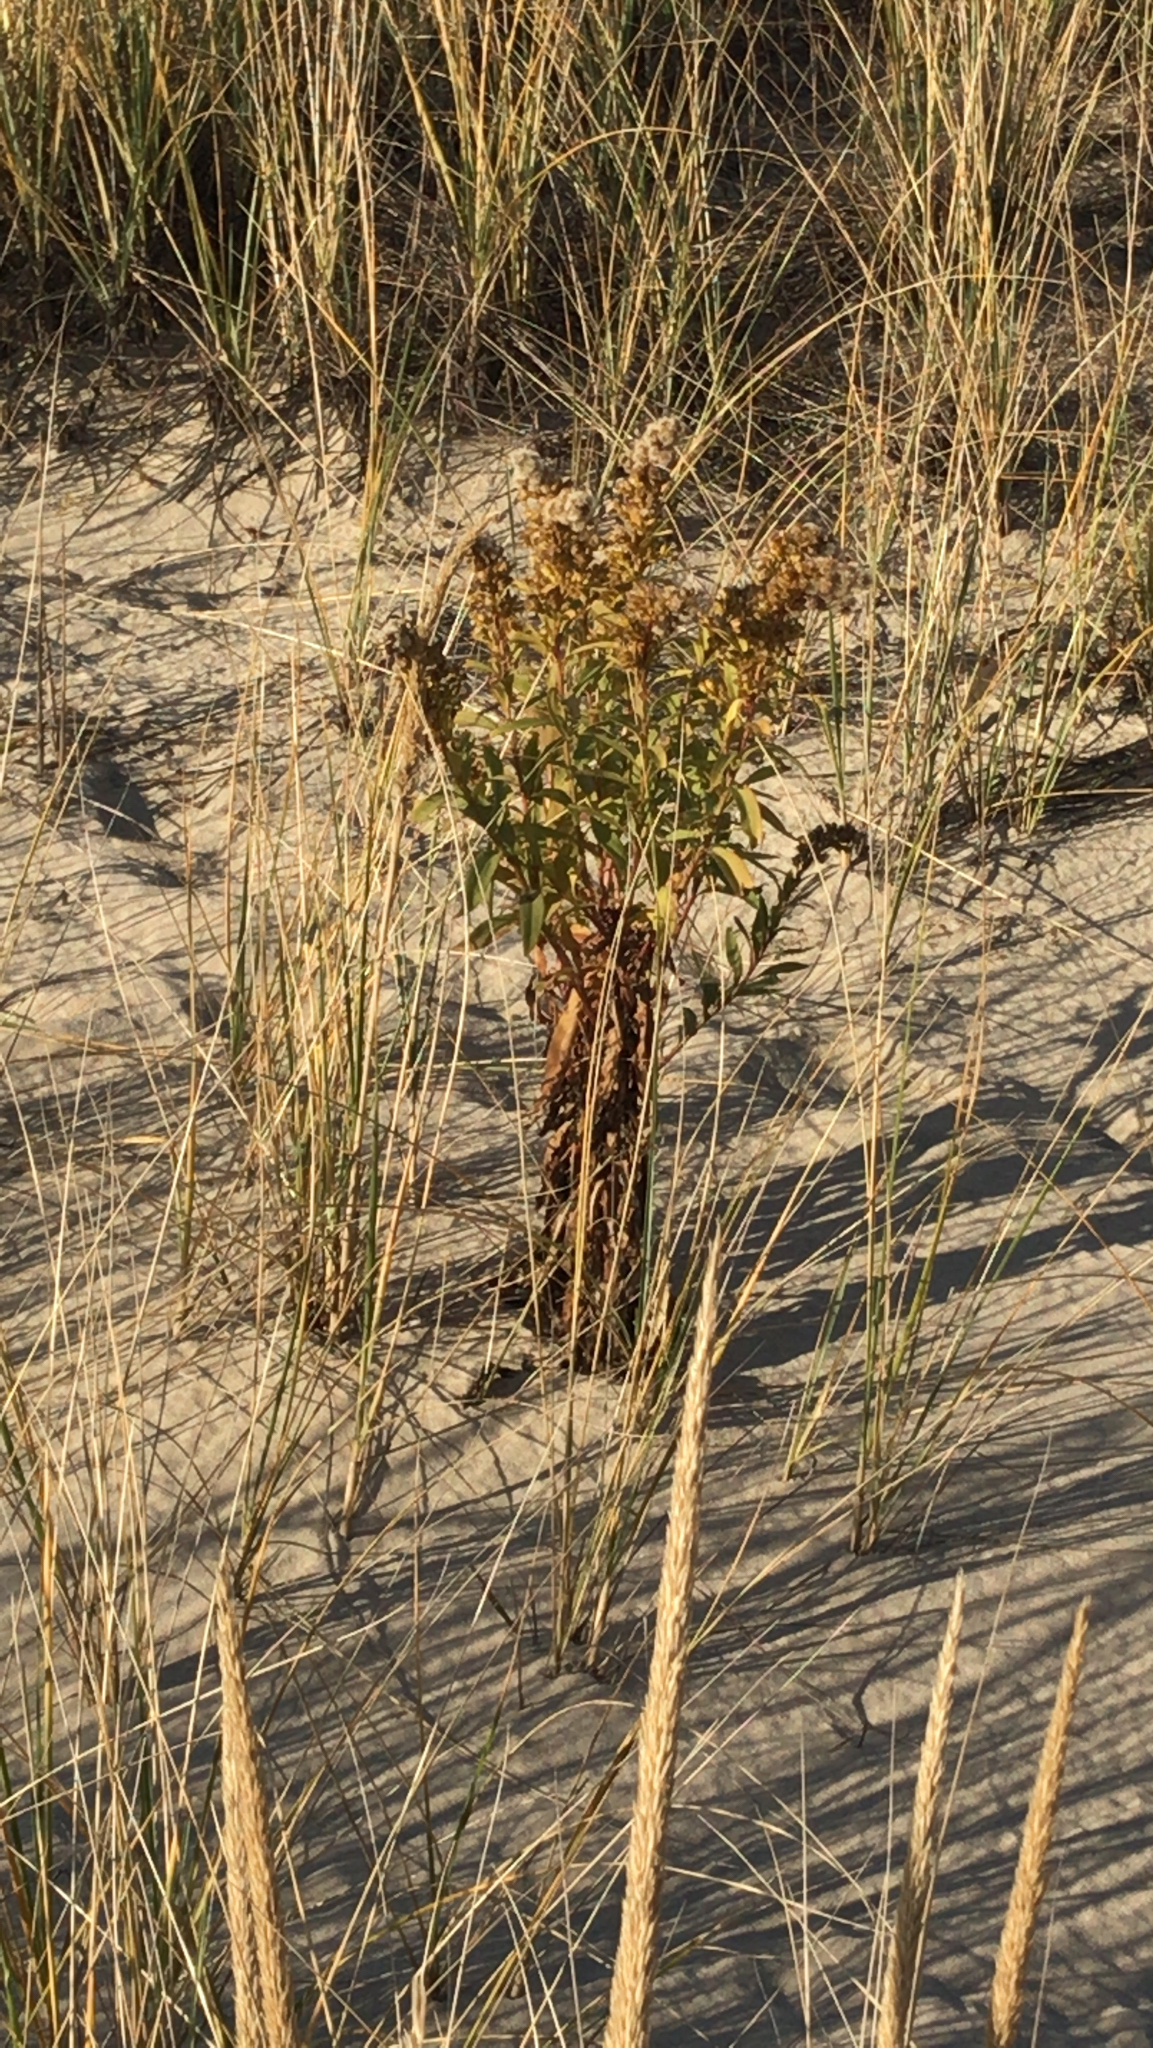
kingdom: Plantae
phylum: Tracheophyta
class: Magnoliopsida
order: Asterales
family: Asteraceae
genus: Solidago
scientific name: Solidago sempervirens
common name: Salt-marsh goldenrod
